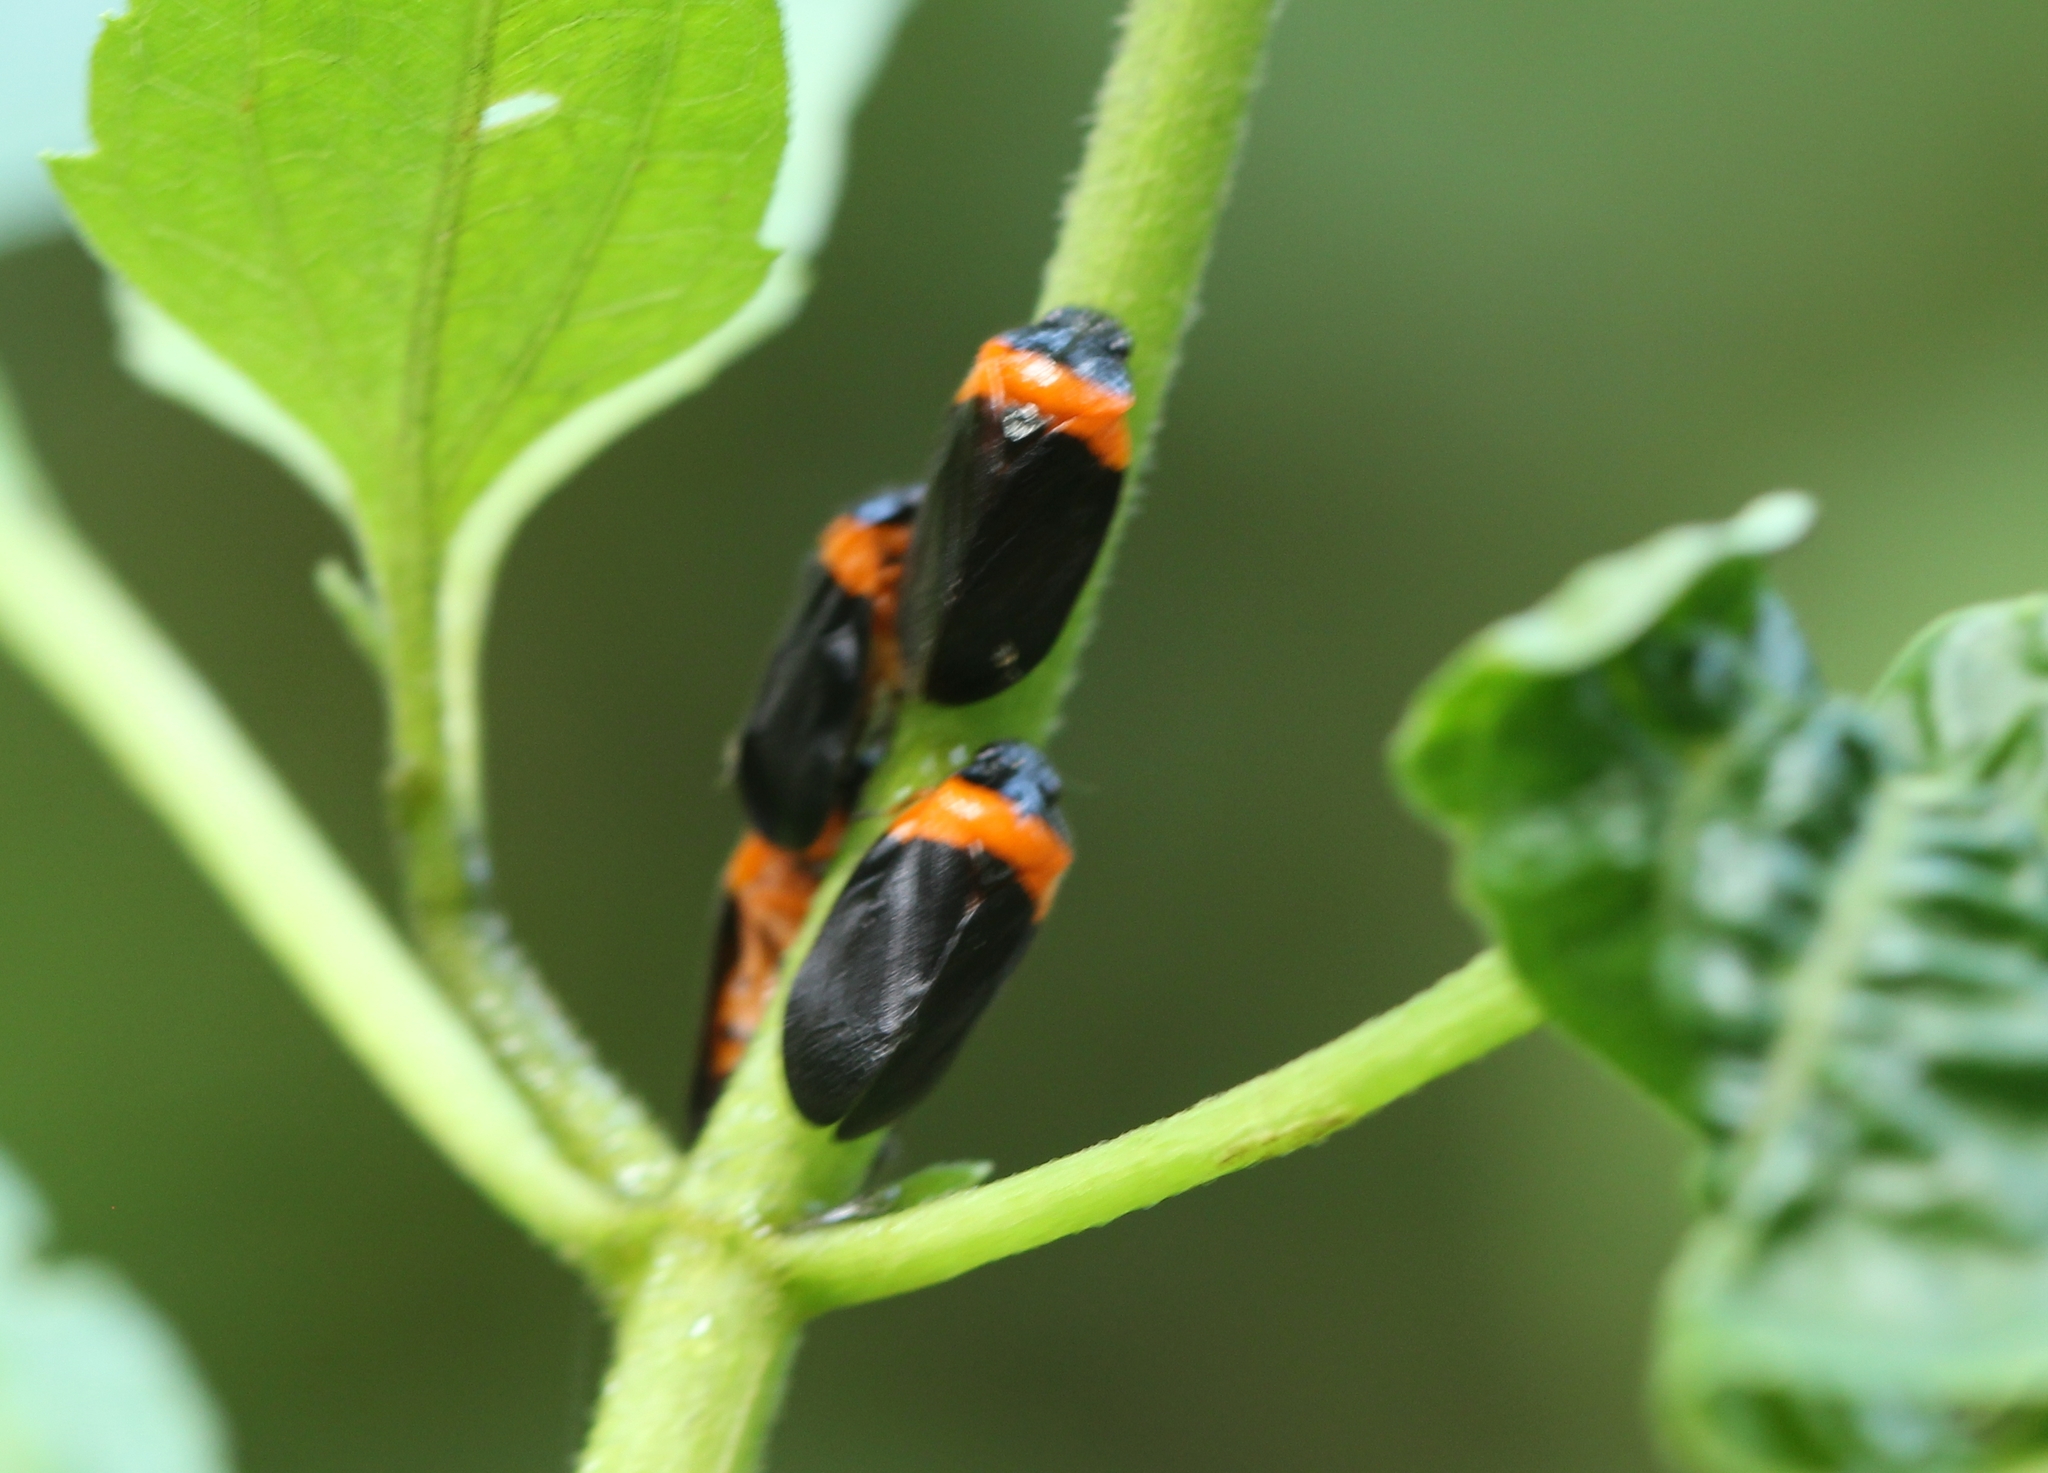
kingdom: Animalia
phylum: Arthropoda
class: Insecta
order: Hemiptera
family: Cercopidae
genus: Phymatostetha
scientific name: Phymatostetha deschampsi
